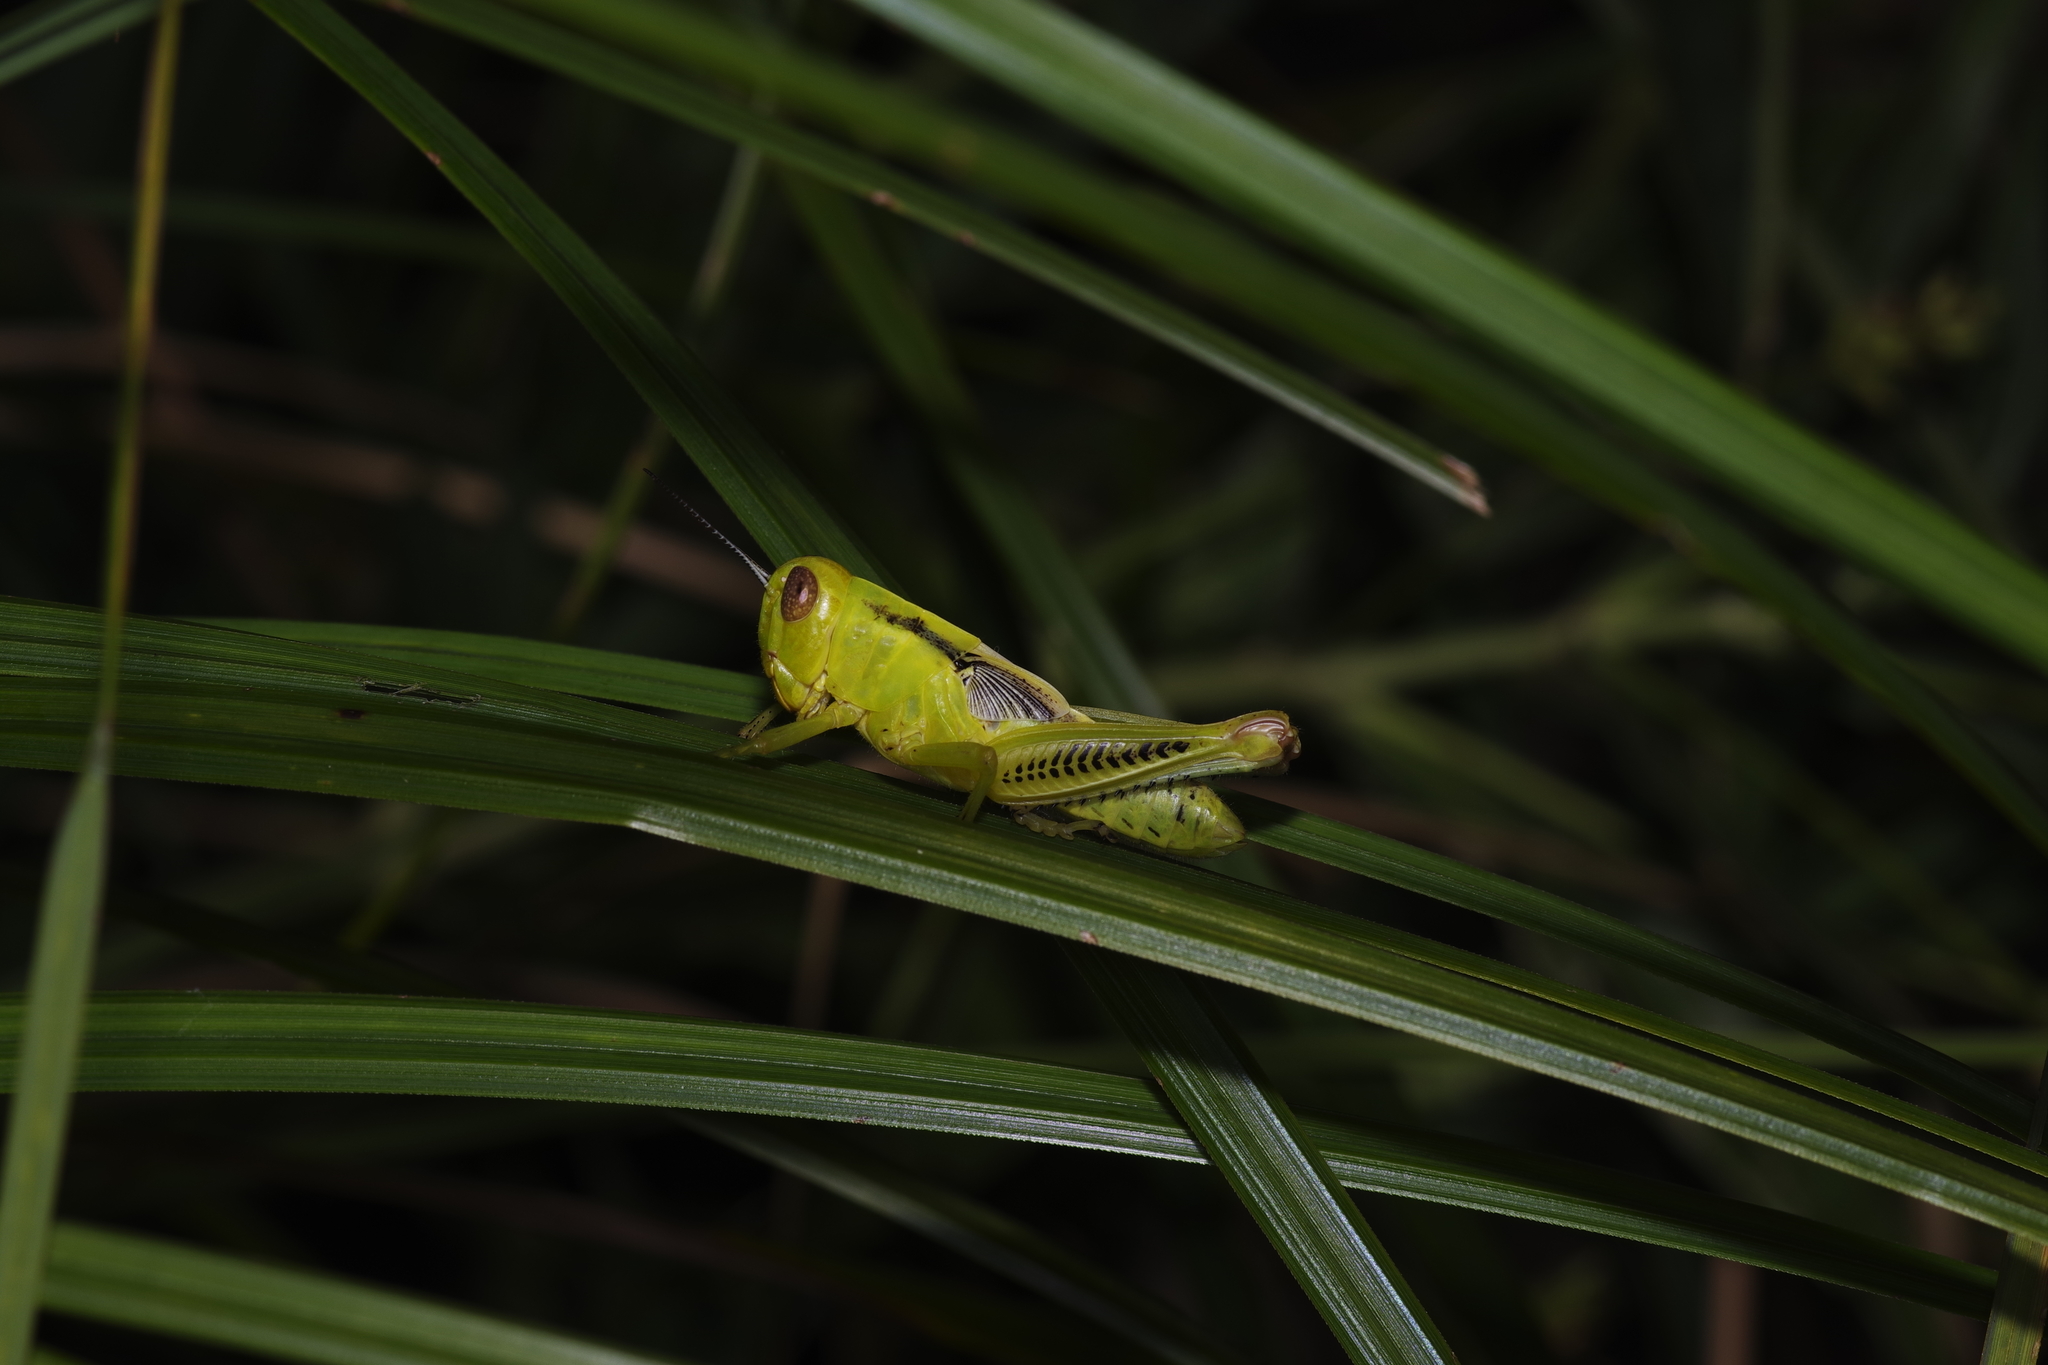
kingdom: Animalia
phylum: Arthropoda
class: Insecta
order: Orthoptera
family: Acrididae
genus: Melanoplus
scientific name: Melanoplus differentialis
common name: Differential grasshopper
